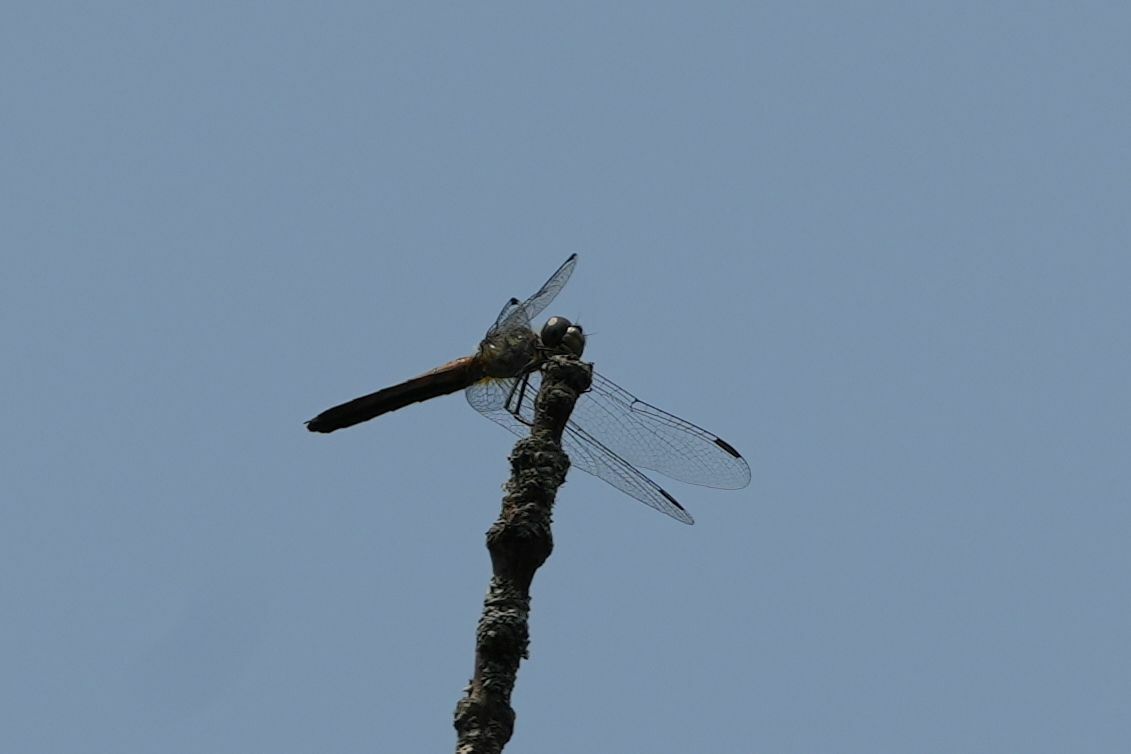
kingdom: Animalia
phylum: Arthropoda
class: Insecta
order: Odonata
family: Libellulidae
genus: Pachydiplax
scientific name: Pachydiplax longipennis
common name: Blue dasher
